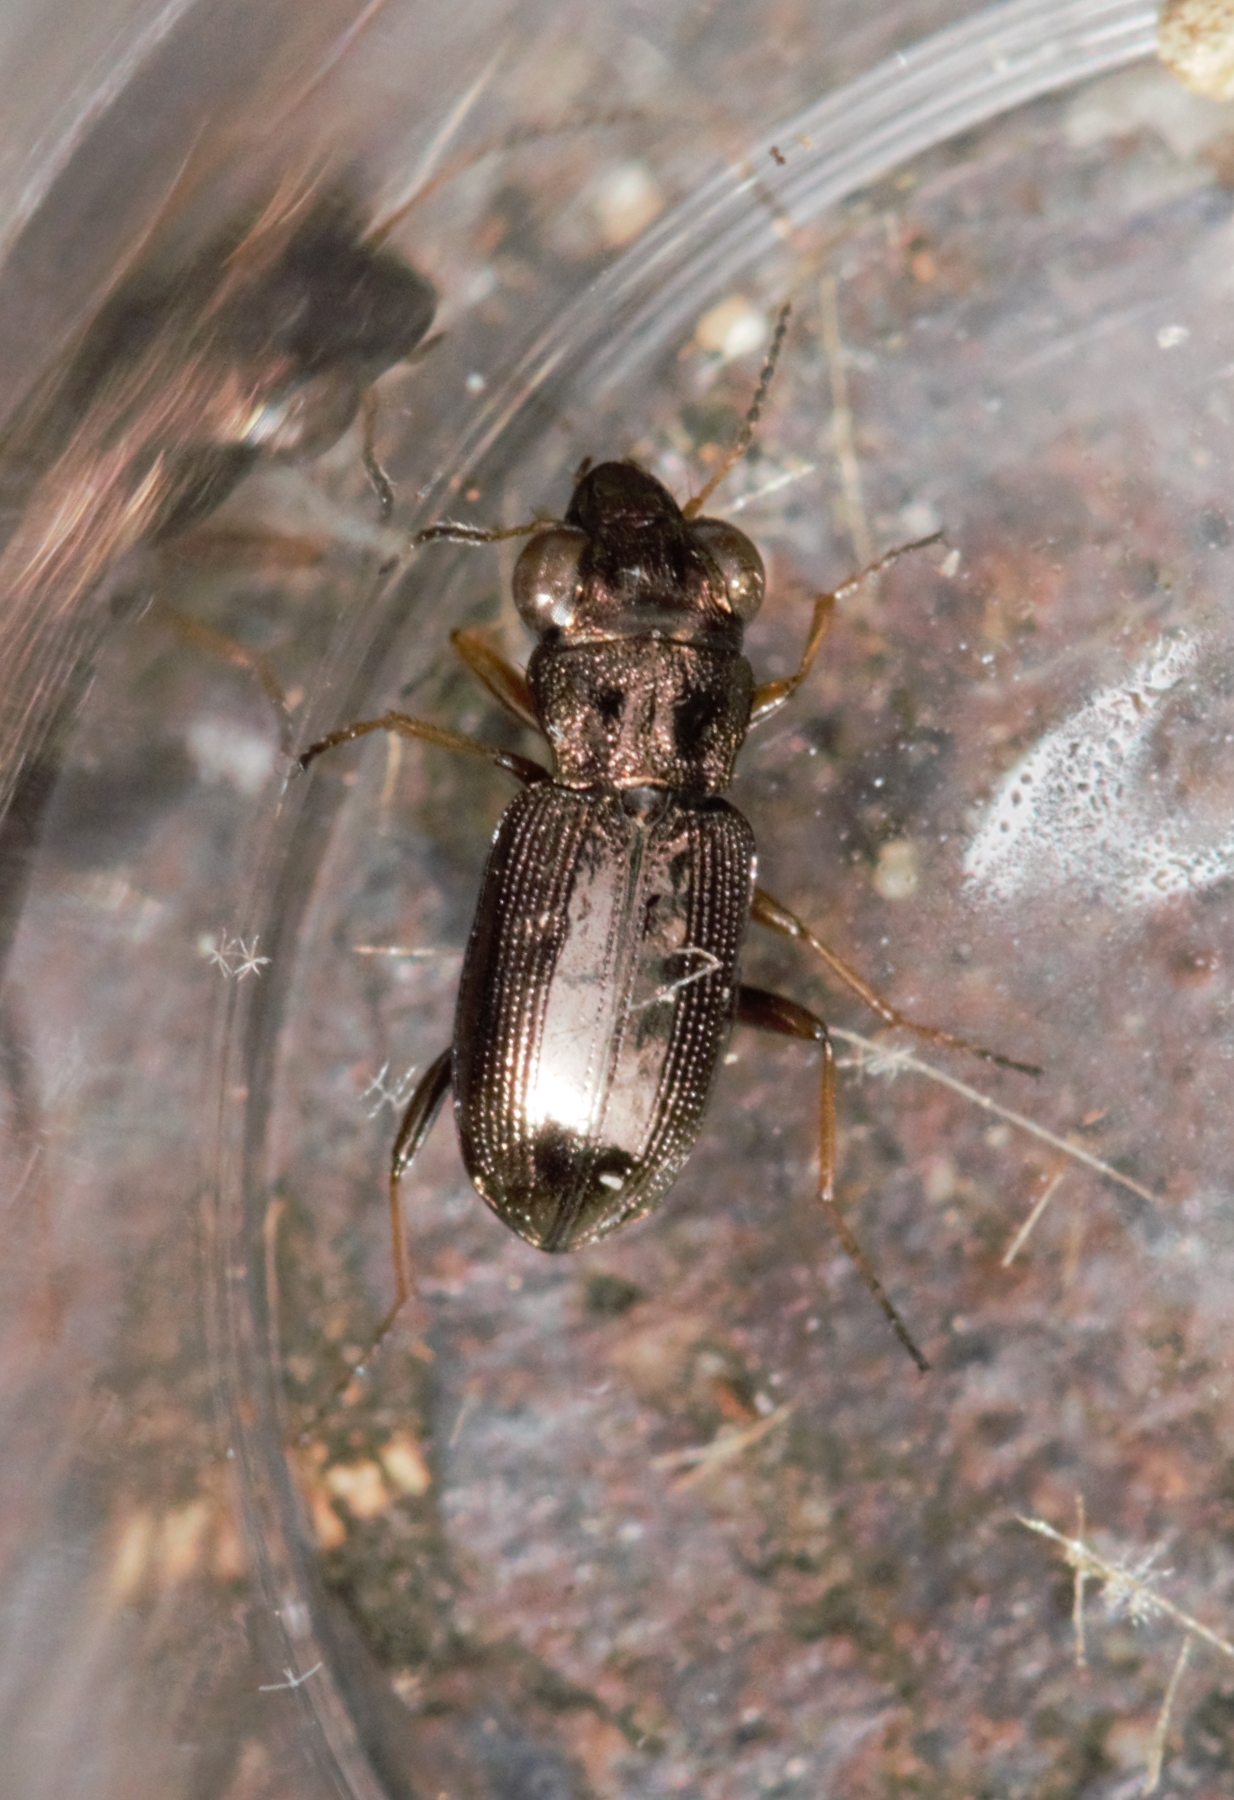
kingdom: Animalia
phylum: Arthropoda
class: Insecta
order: Coleoptera
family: Carabidae
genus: Notiophilus
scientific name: Notiophilus rufipes
